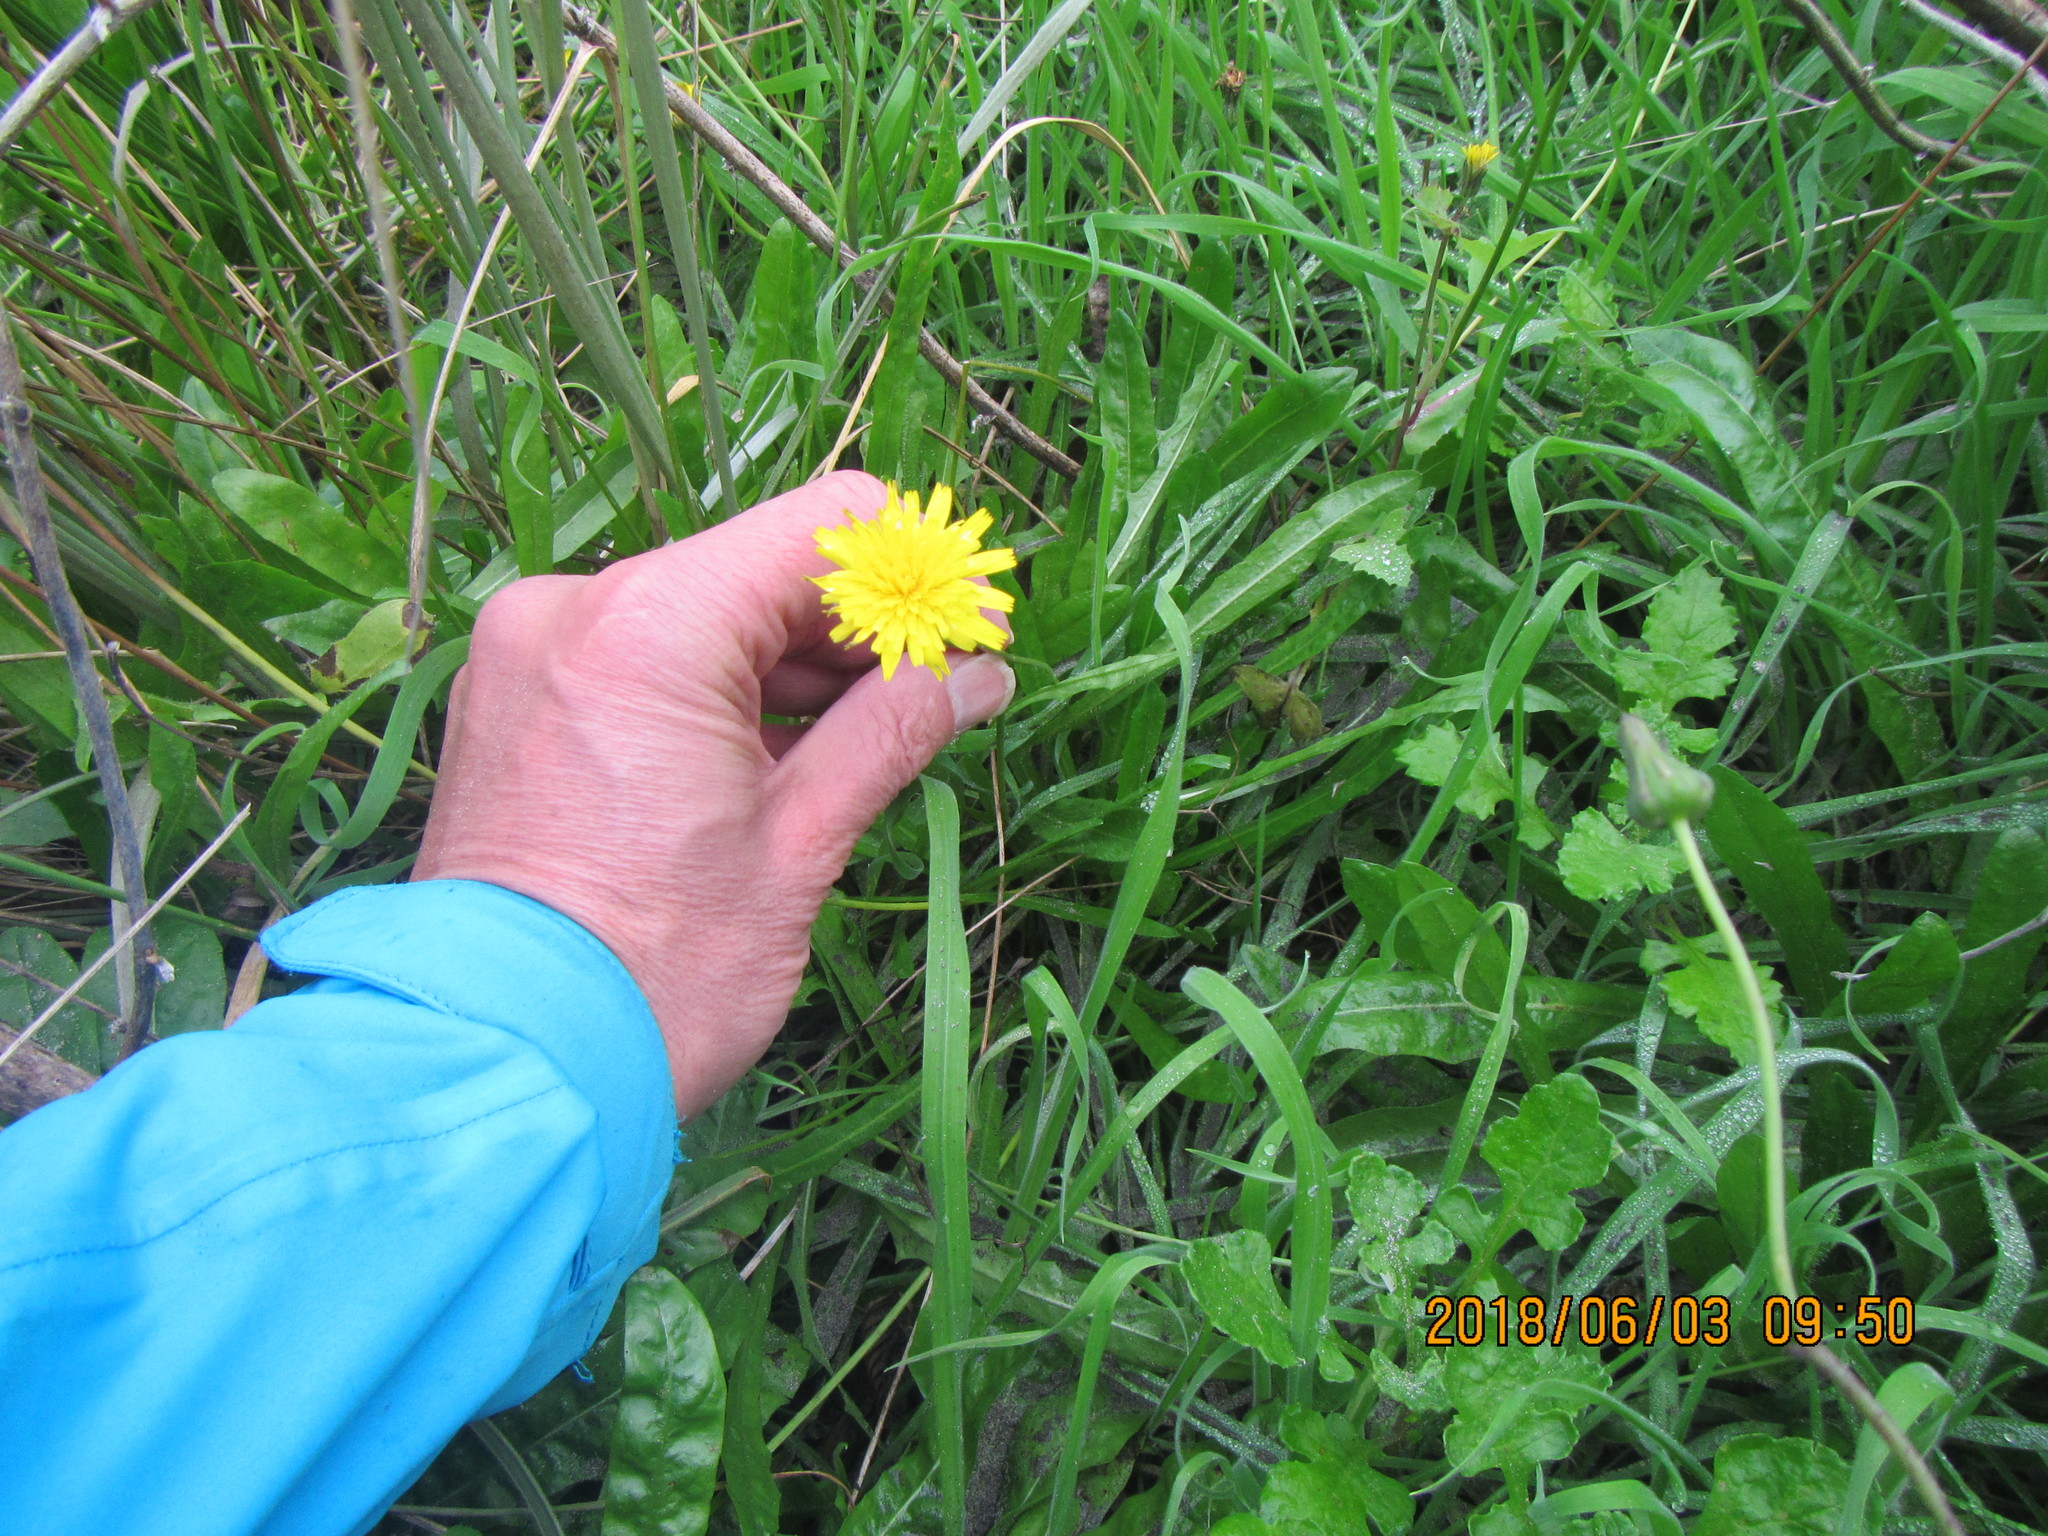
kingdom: Plantae
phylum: Tracheophyta
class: Magnoliopsida
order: Asterales
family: Asteraceae
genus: Hypochaeris
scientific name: Hypochaeris radicata
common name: Flatweed
